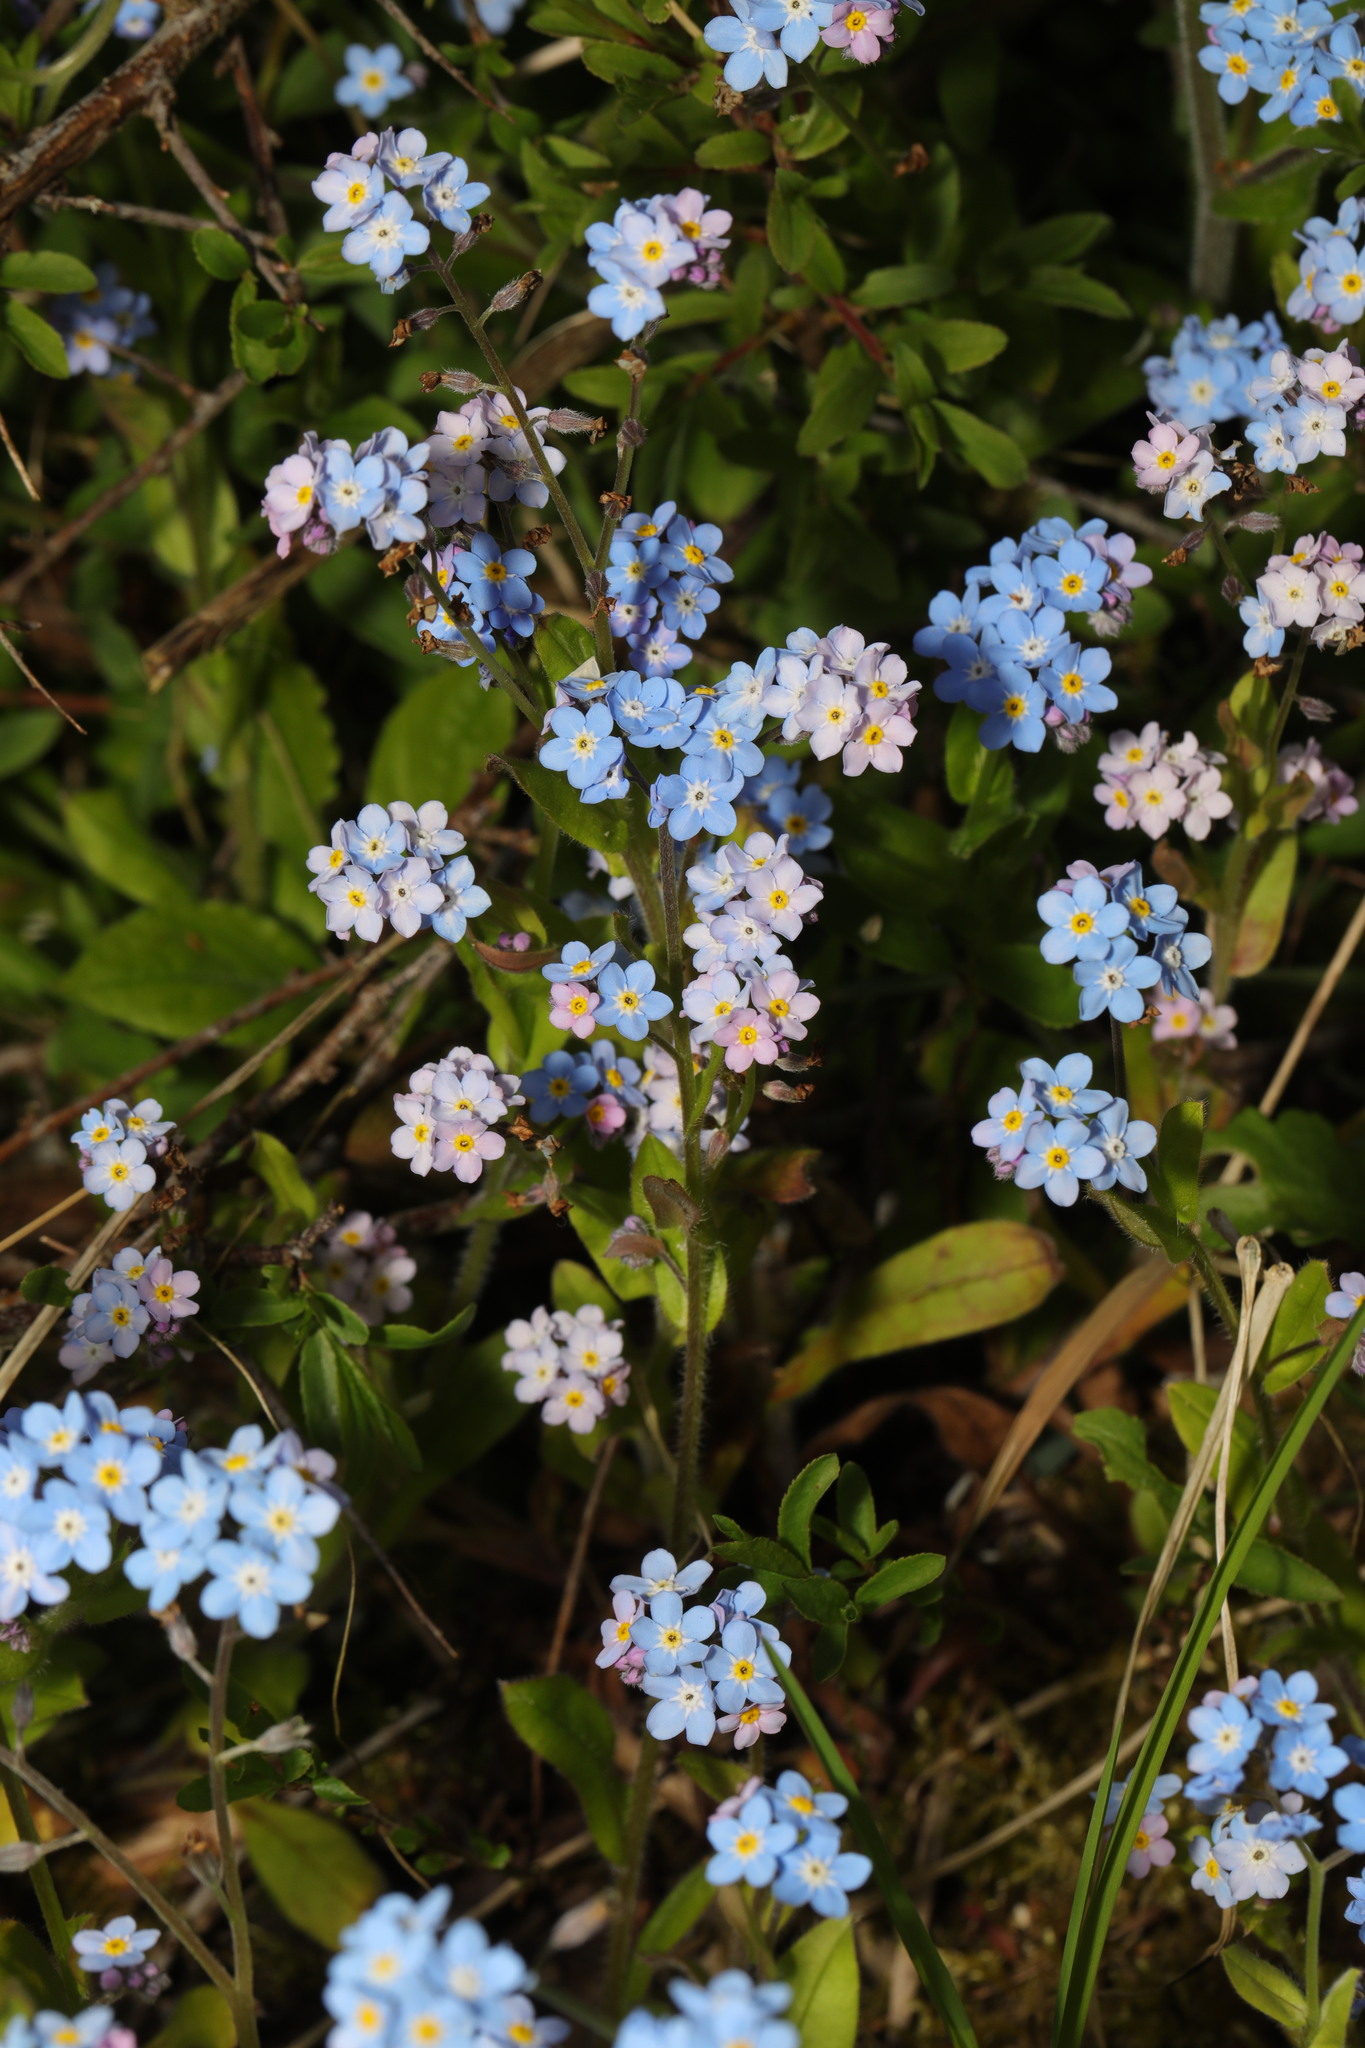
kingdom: Plantae
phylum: Tracheophyta
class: Magnoliopsida
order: Boraginales
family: Boraginaceae
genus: Myosotis
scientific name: Myosotis sylvatica
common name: Wood forget-me-not
